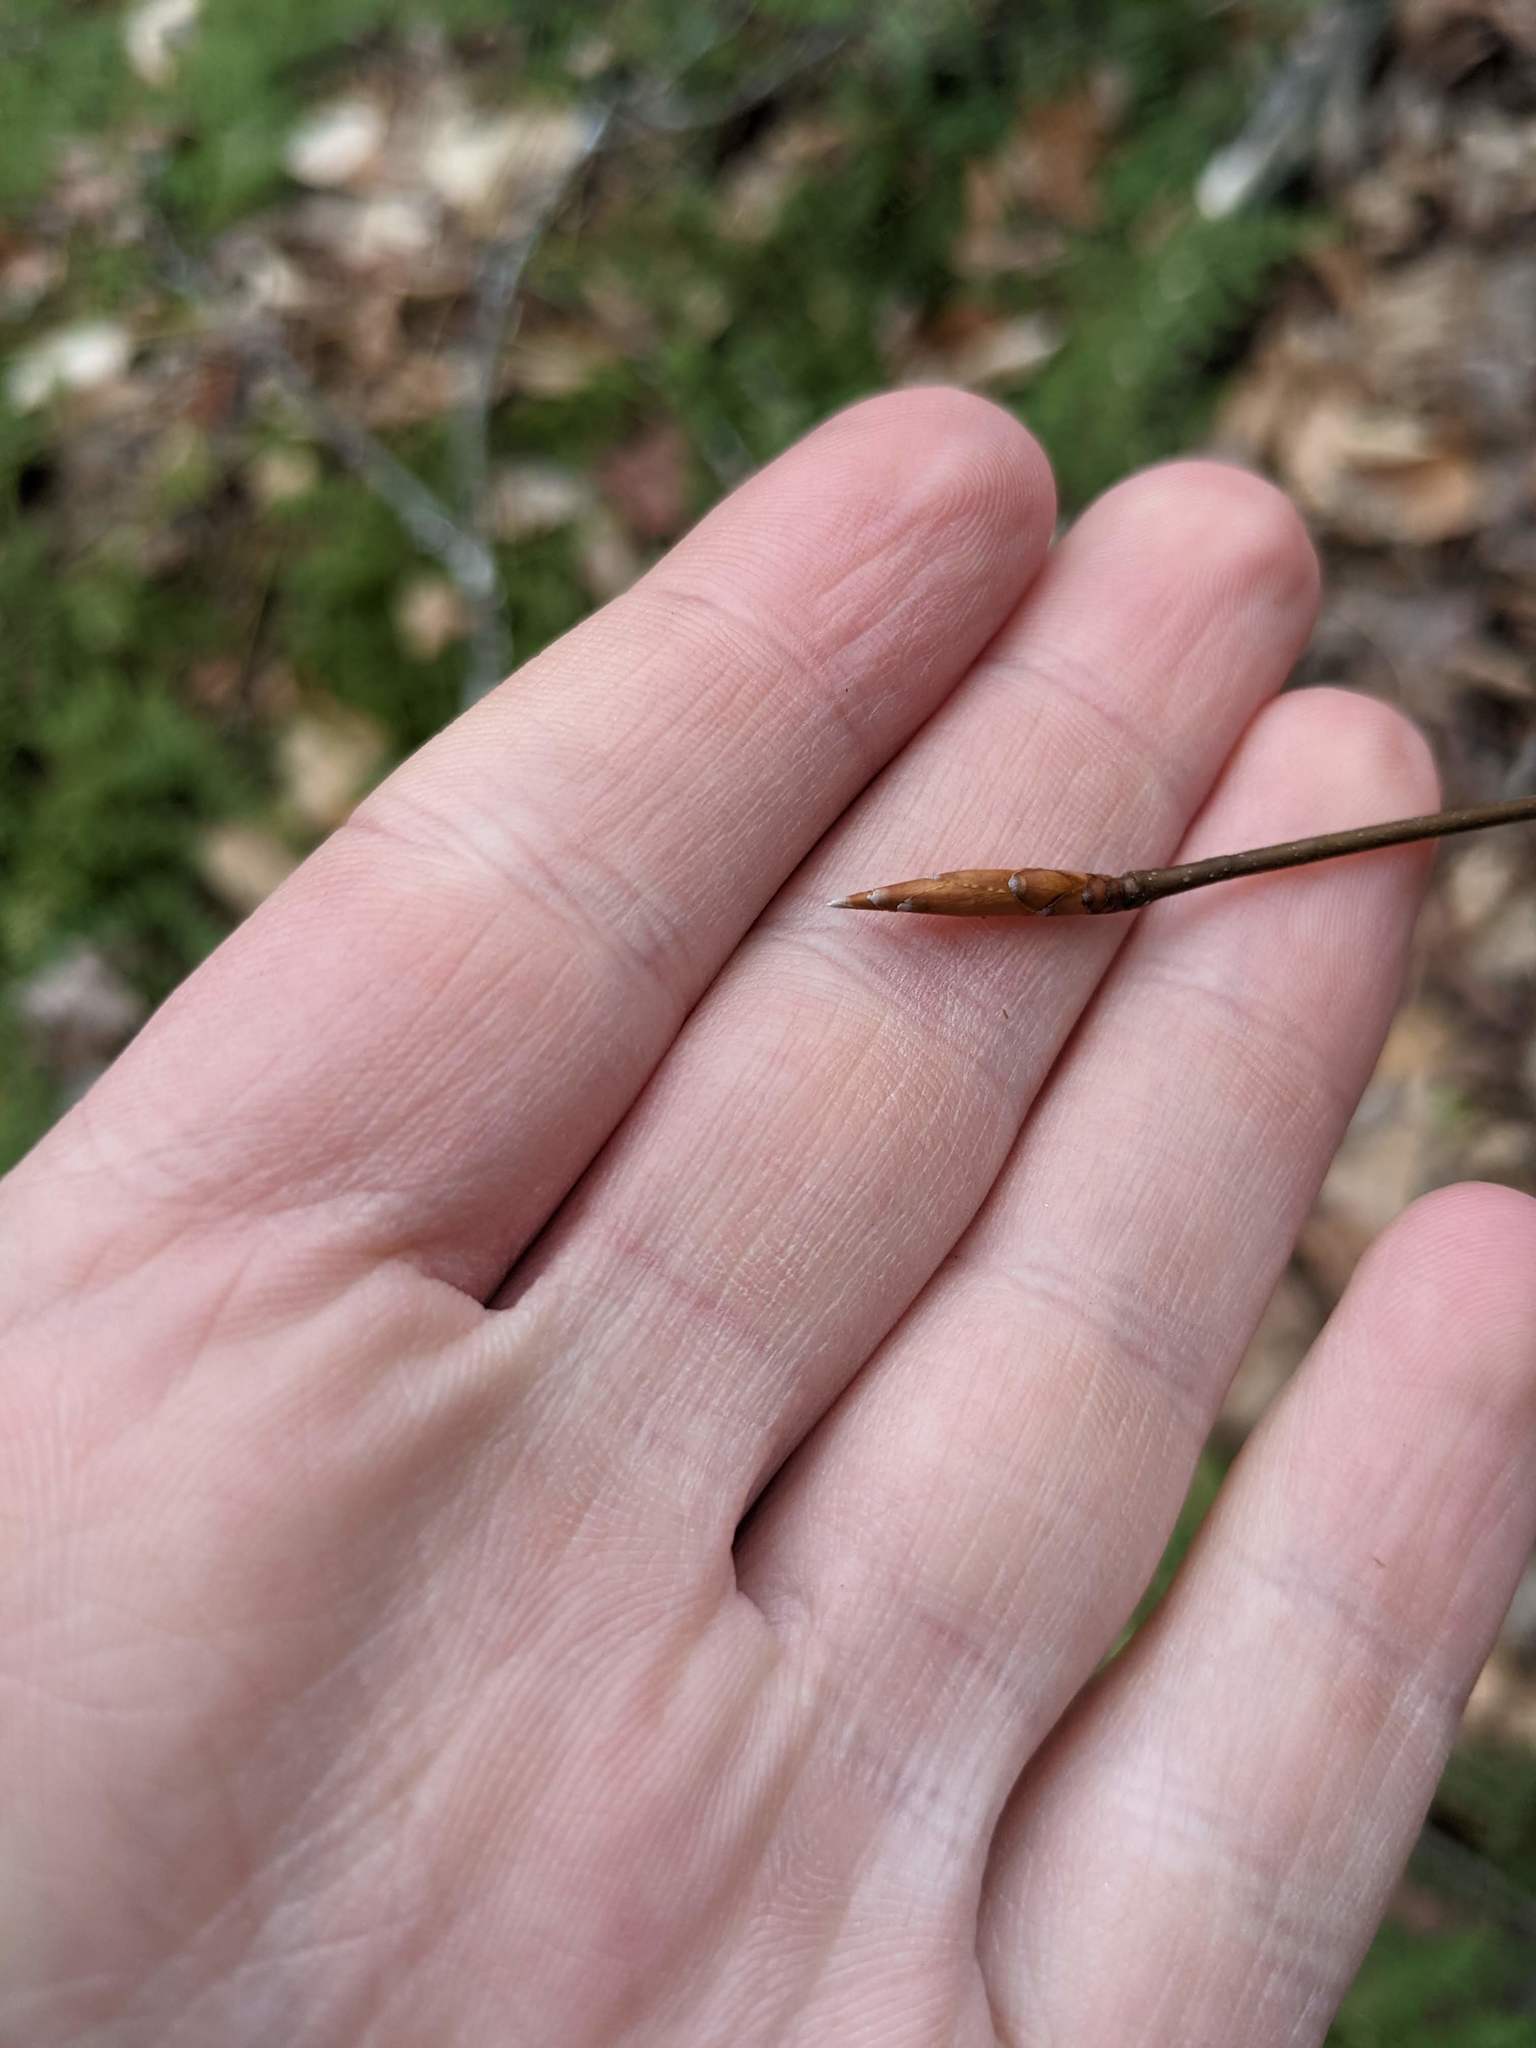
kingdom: Plantae
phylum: Tracheophyta
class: Magnoliopsida
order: Fagales
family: Fagaceae
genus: Fagus
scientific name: Fagus grandifolia
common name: American beech
